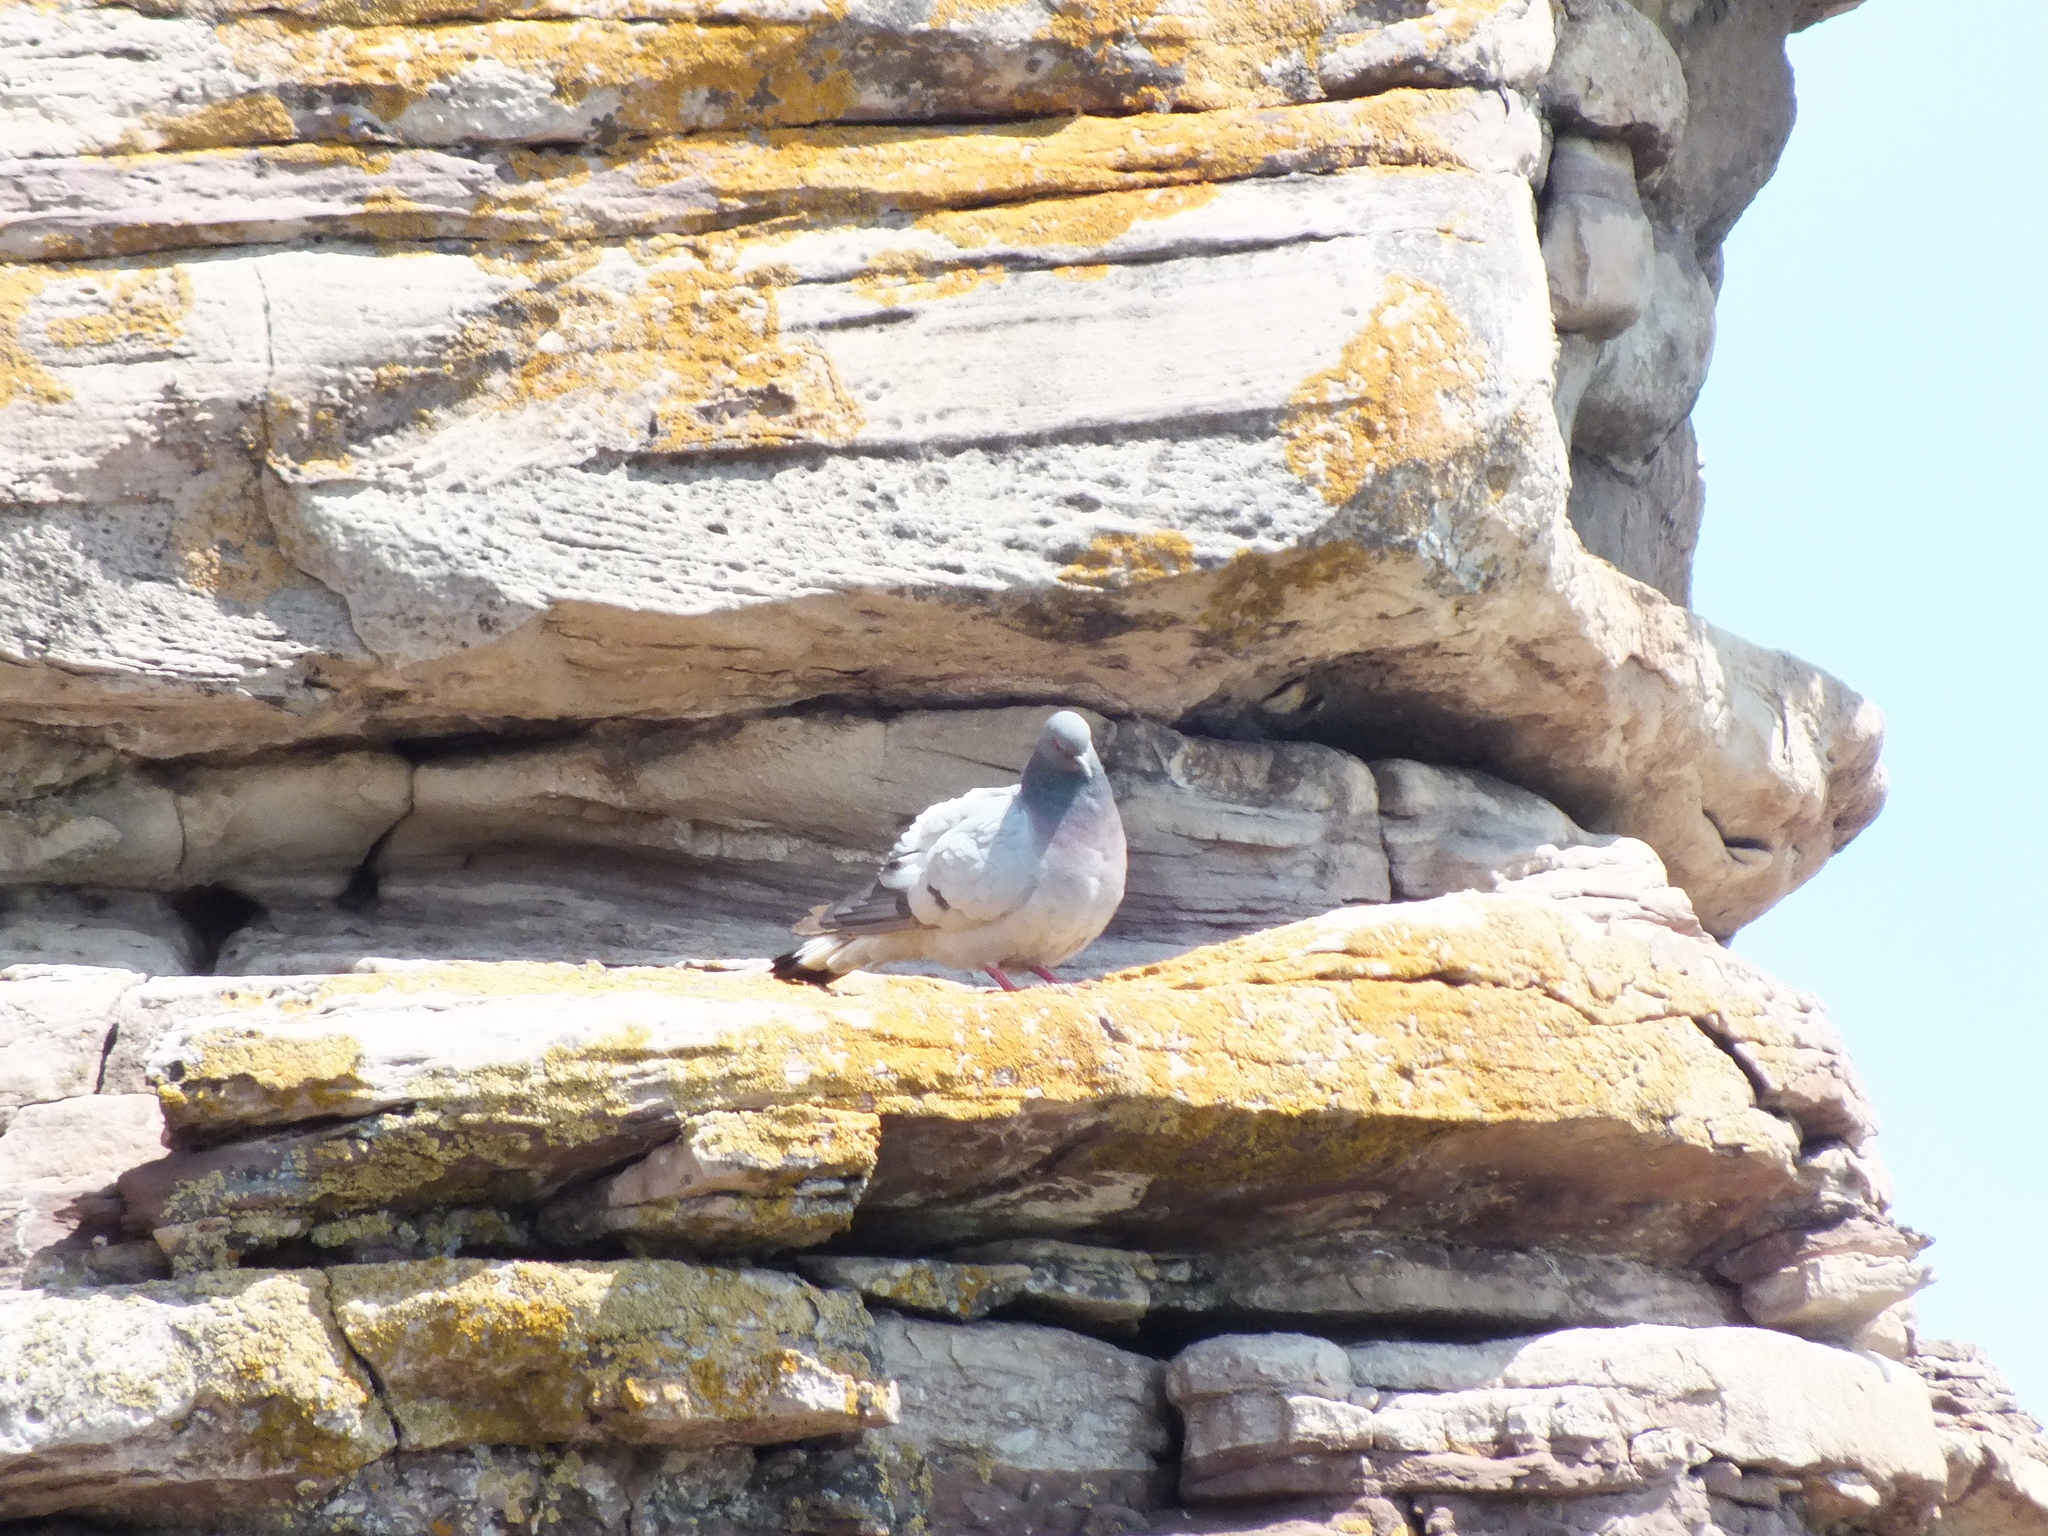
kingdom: Animalia
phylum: Chordata
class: Aves
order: Columbiformes
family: Columbidae
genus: Columba
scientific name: Columba rupestris
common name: Hill pigeon
